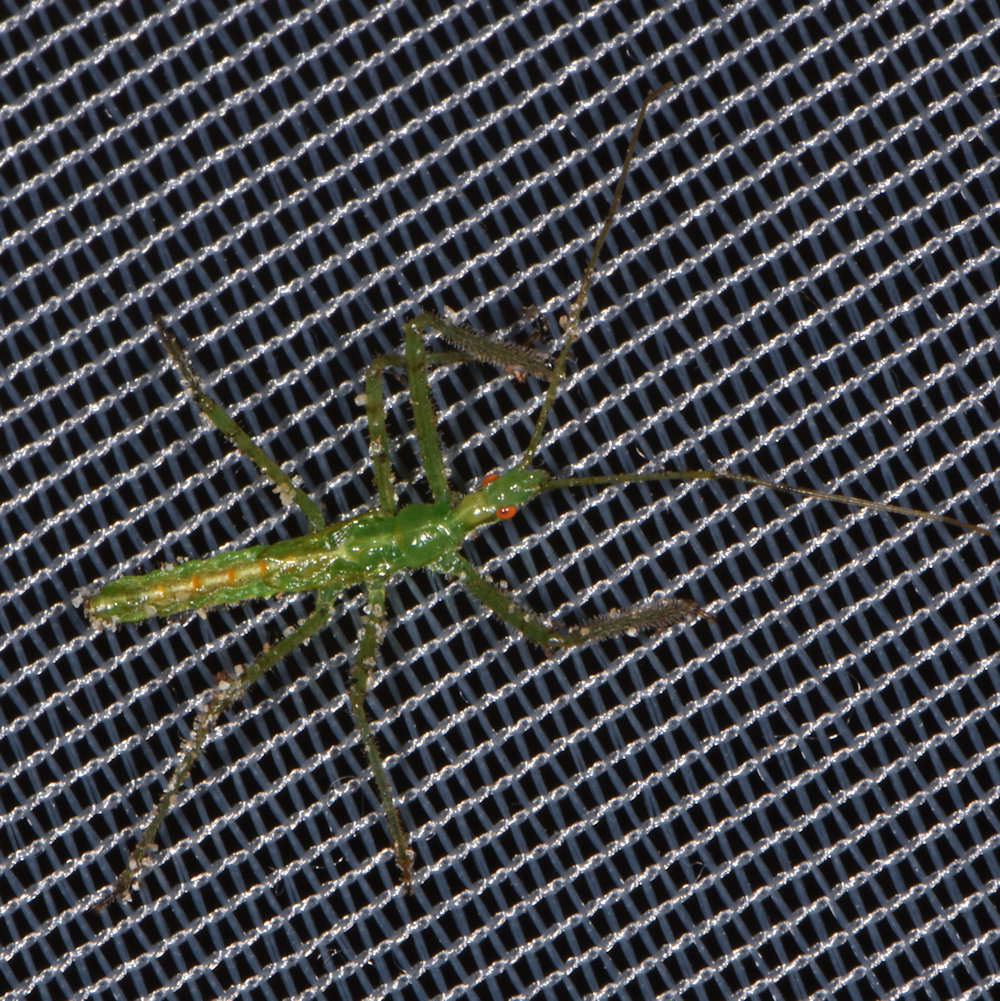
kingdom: Animalia
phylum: Arthropoda
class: Insecta
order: Hemiptera
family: Reduviidae
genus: Zelus
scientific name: Zelus luridus
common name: Pale green assassin bug
